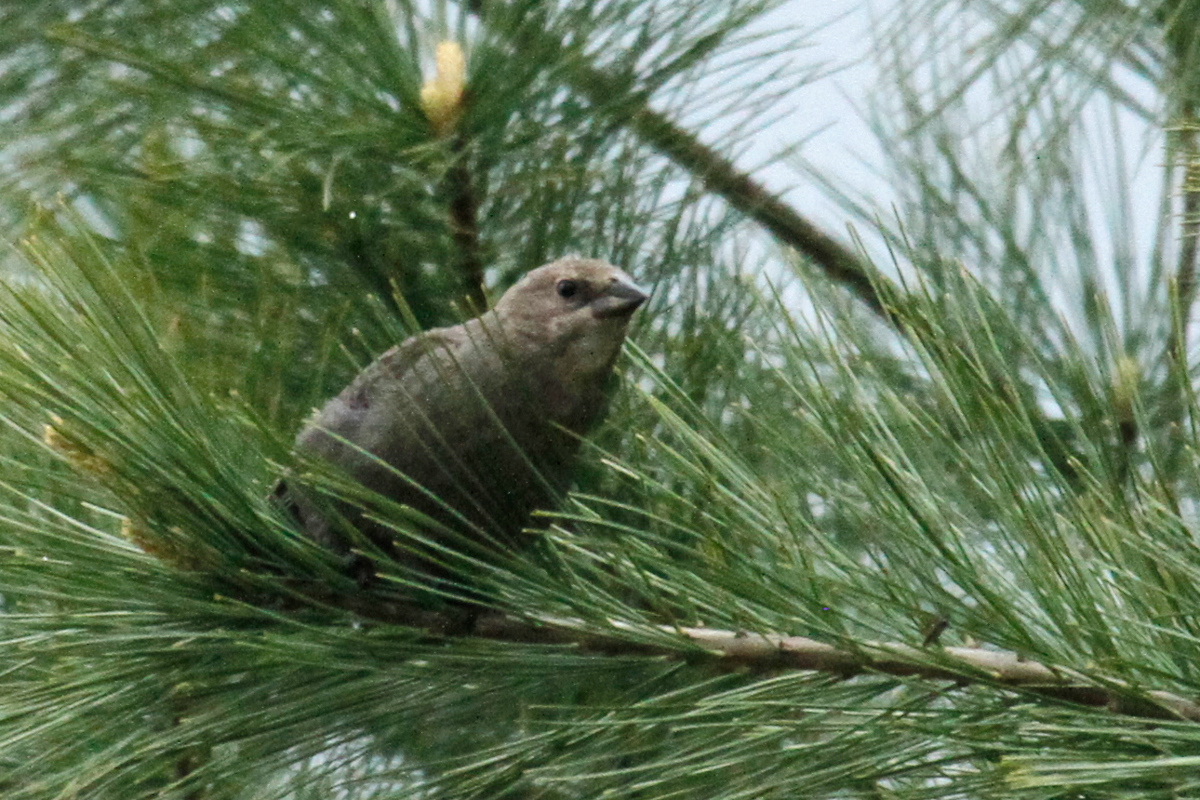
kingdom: Animalia
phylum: Chordata
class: Aves
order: Passeriformes
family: Icteridae
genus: Molothrus
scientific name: Molothrus ater
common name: Brown-headed cowbird
